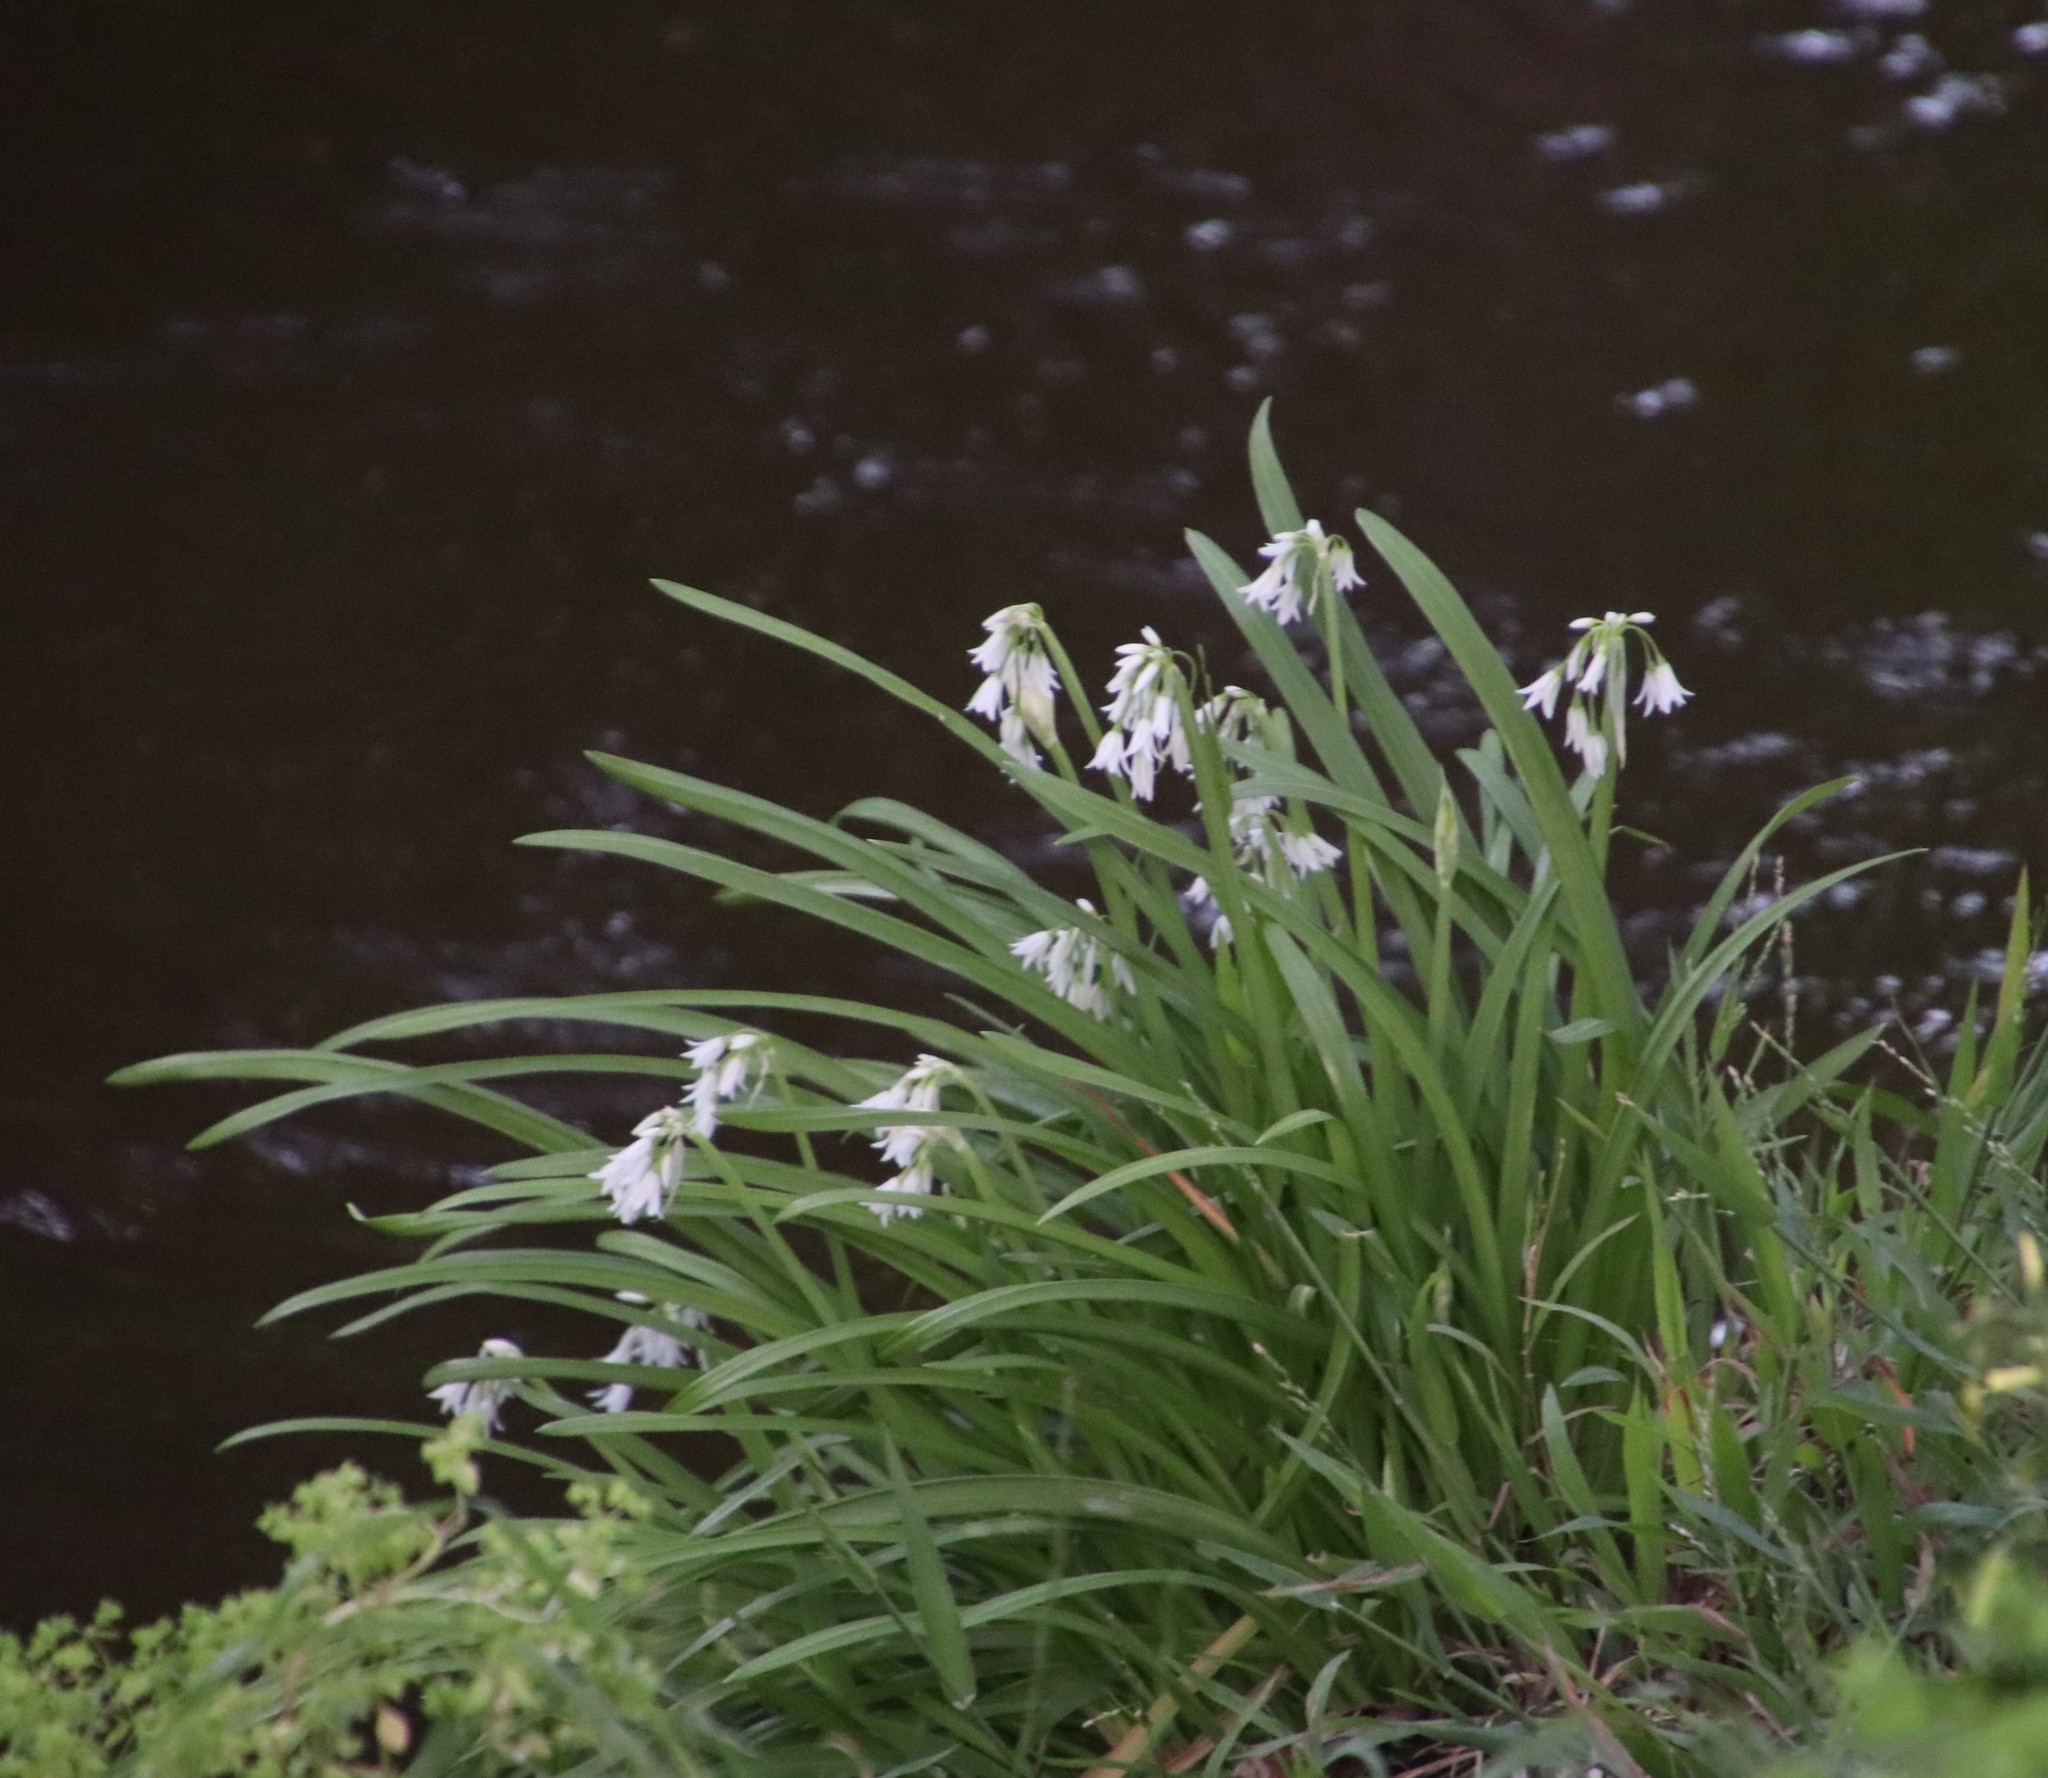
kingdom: Plantae
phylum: Tracheophyta
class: Liliopsida
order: Asparagales
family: Amaryllidaceae
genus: Allium
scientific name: Allium triquetrum
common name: Three-cornered garlic
